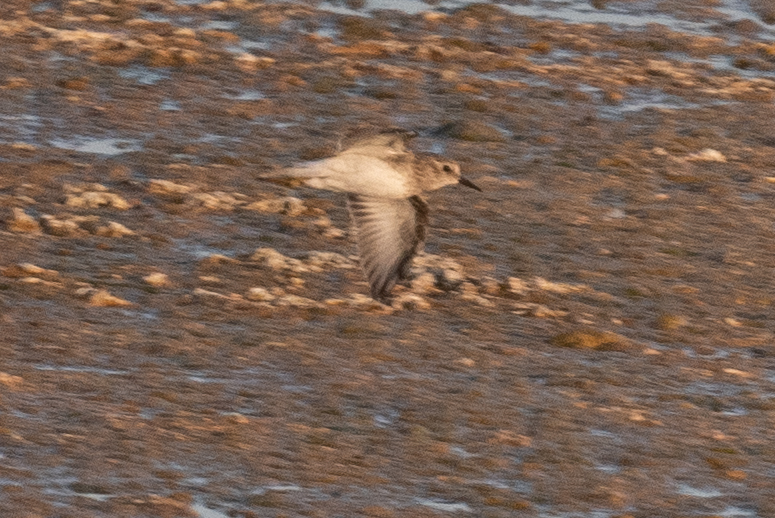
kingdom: Animalia
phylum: Chordata
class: Aves
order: Charadriiformes
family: Scolopacidae
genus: Calidris
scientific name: Calidris minutilla
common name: Least sandpiper
